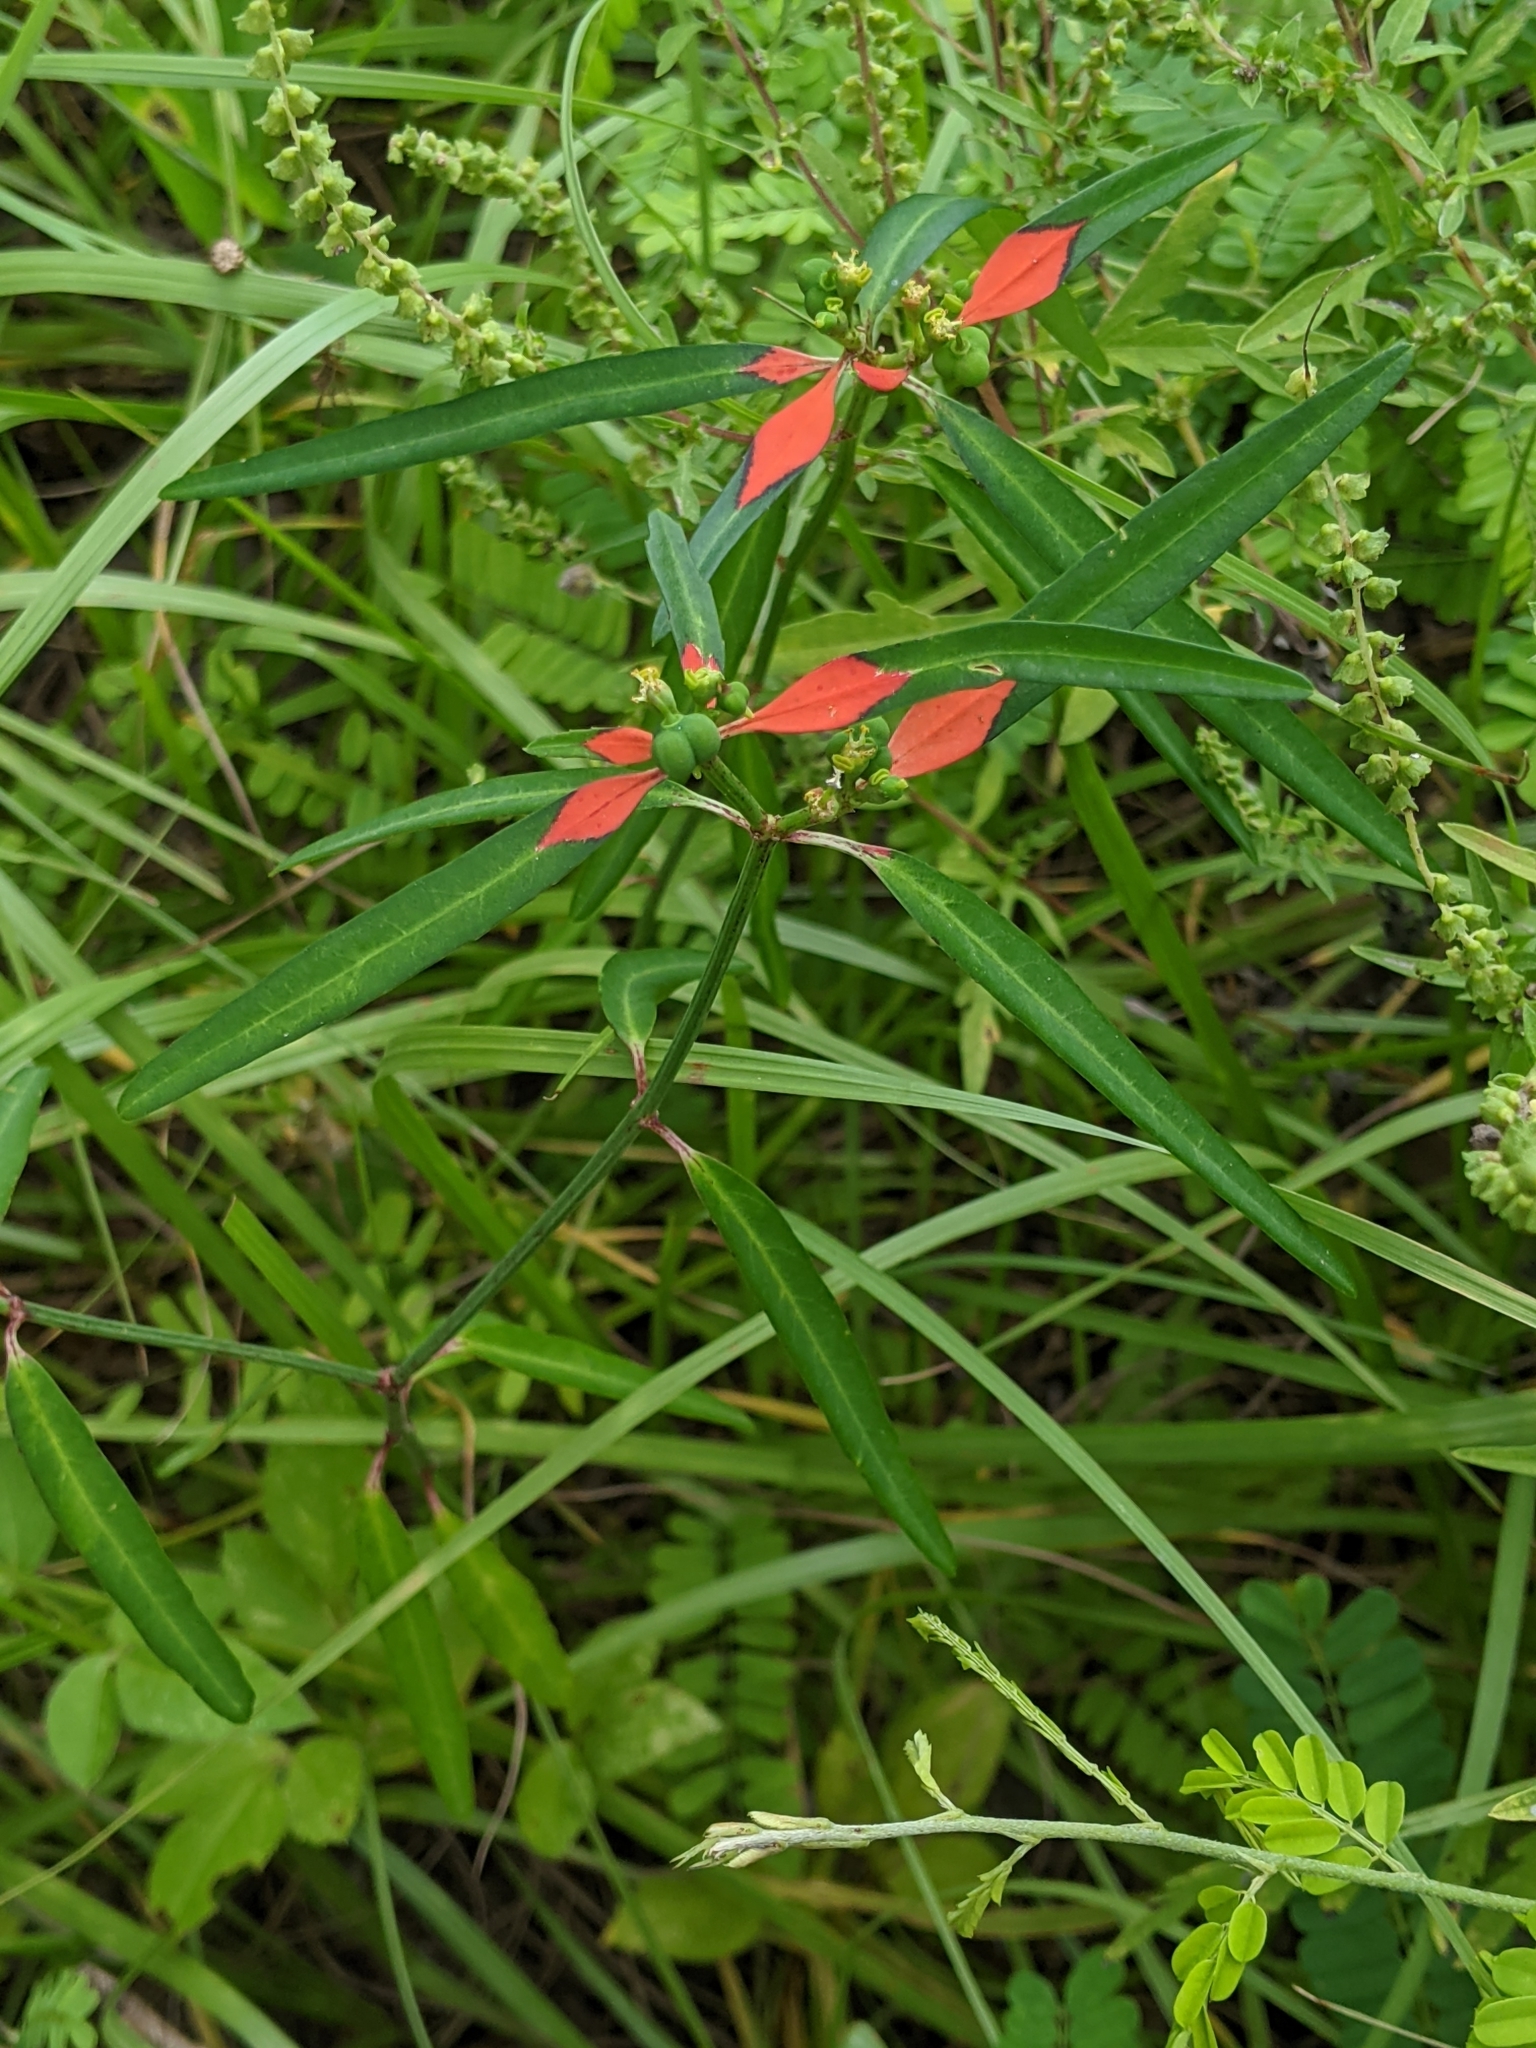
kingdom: Plantae
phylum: Tracheophyta
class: Magnoliopsida
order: Malpighiales
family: Euphorbiaceae
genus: Euphorbia
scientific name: Euphorbia heterophylla
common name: Mexican fireplant
